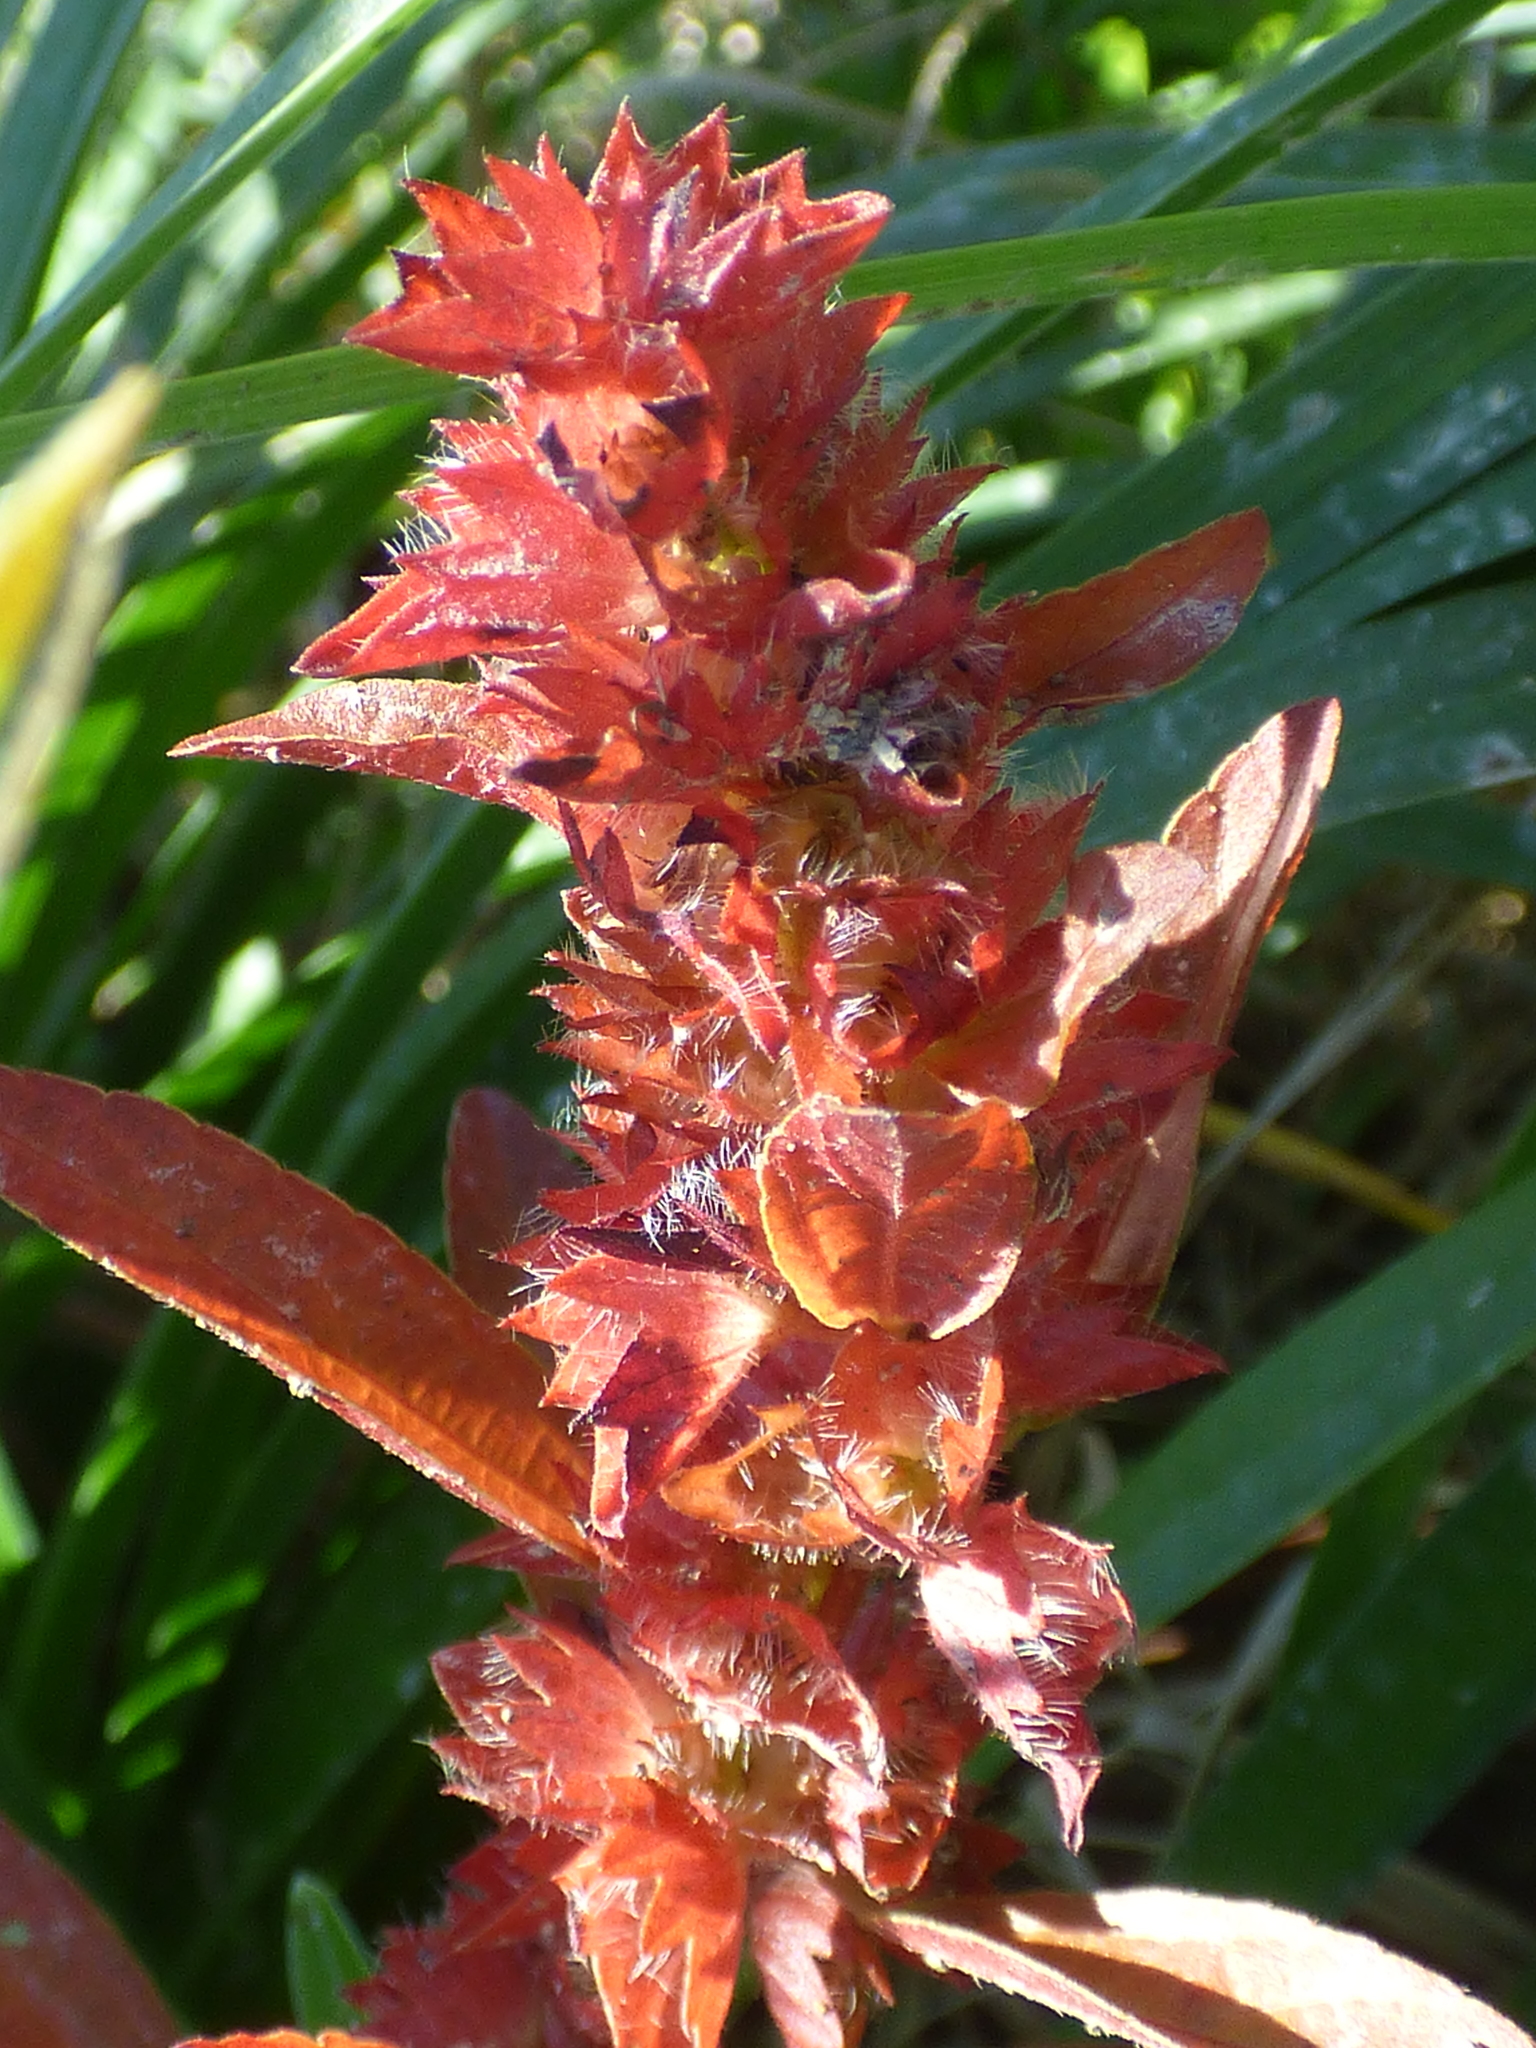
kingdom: Plantae
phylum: Tracheophyta
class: Magnoliopsida
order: Malpighiales
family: Euphorbiaceae
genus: Acalypha
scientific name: Acalypha gracilens
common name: Slender three-seeded mercury
